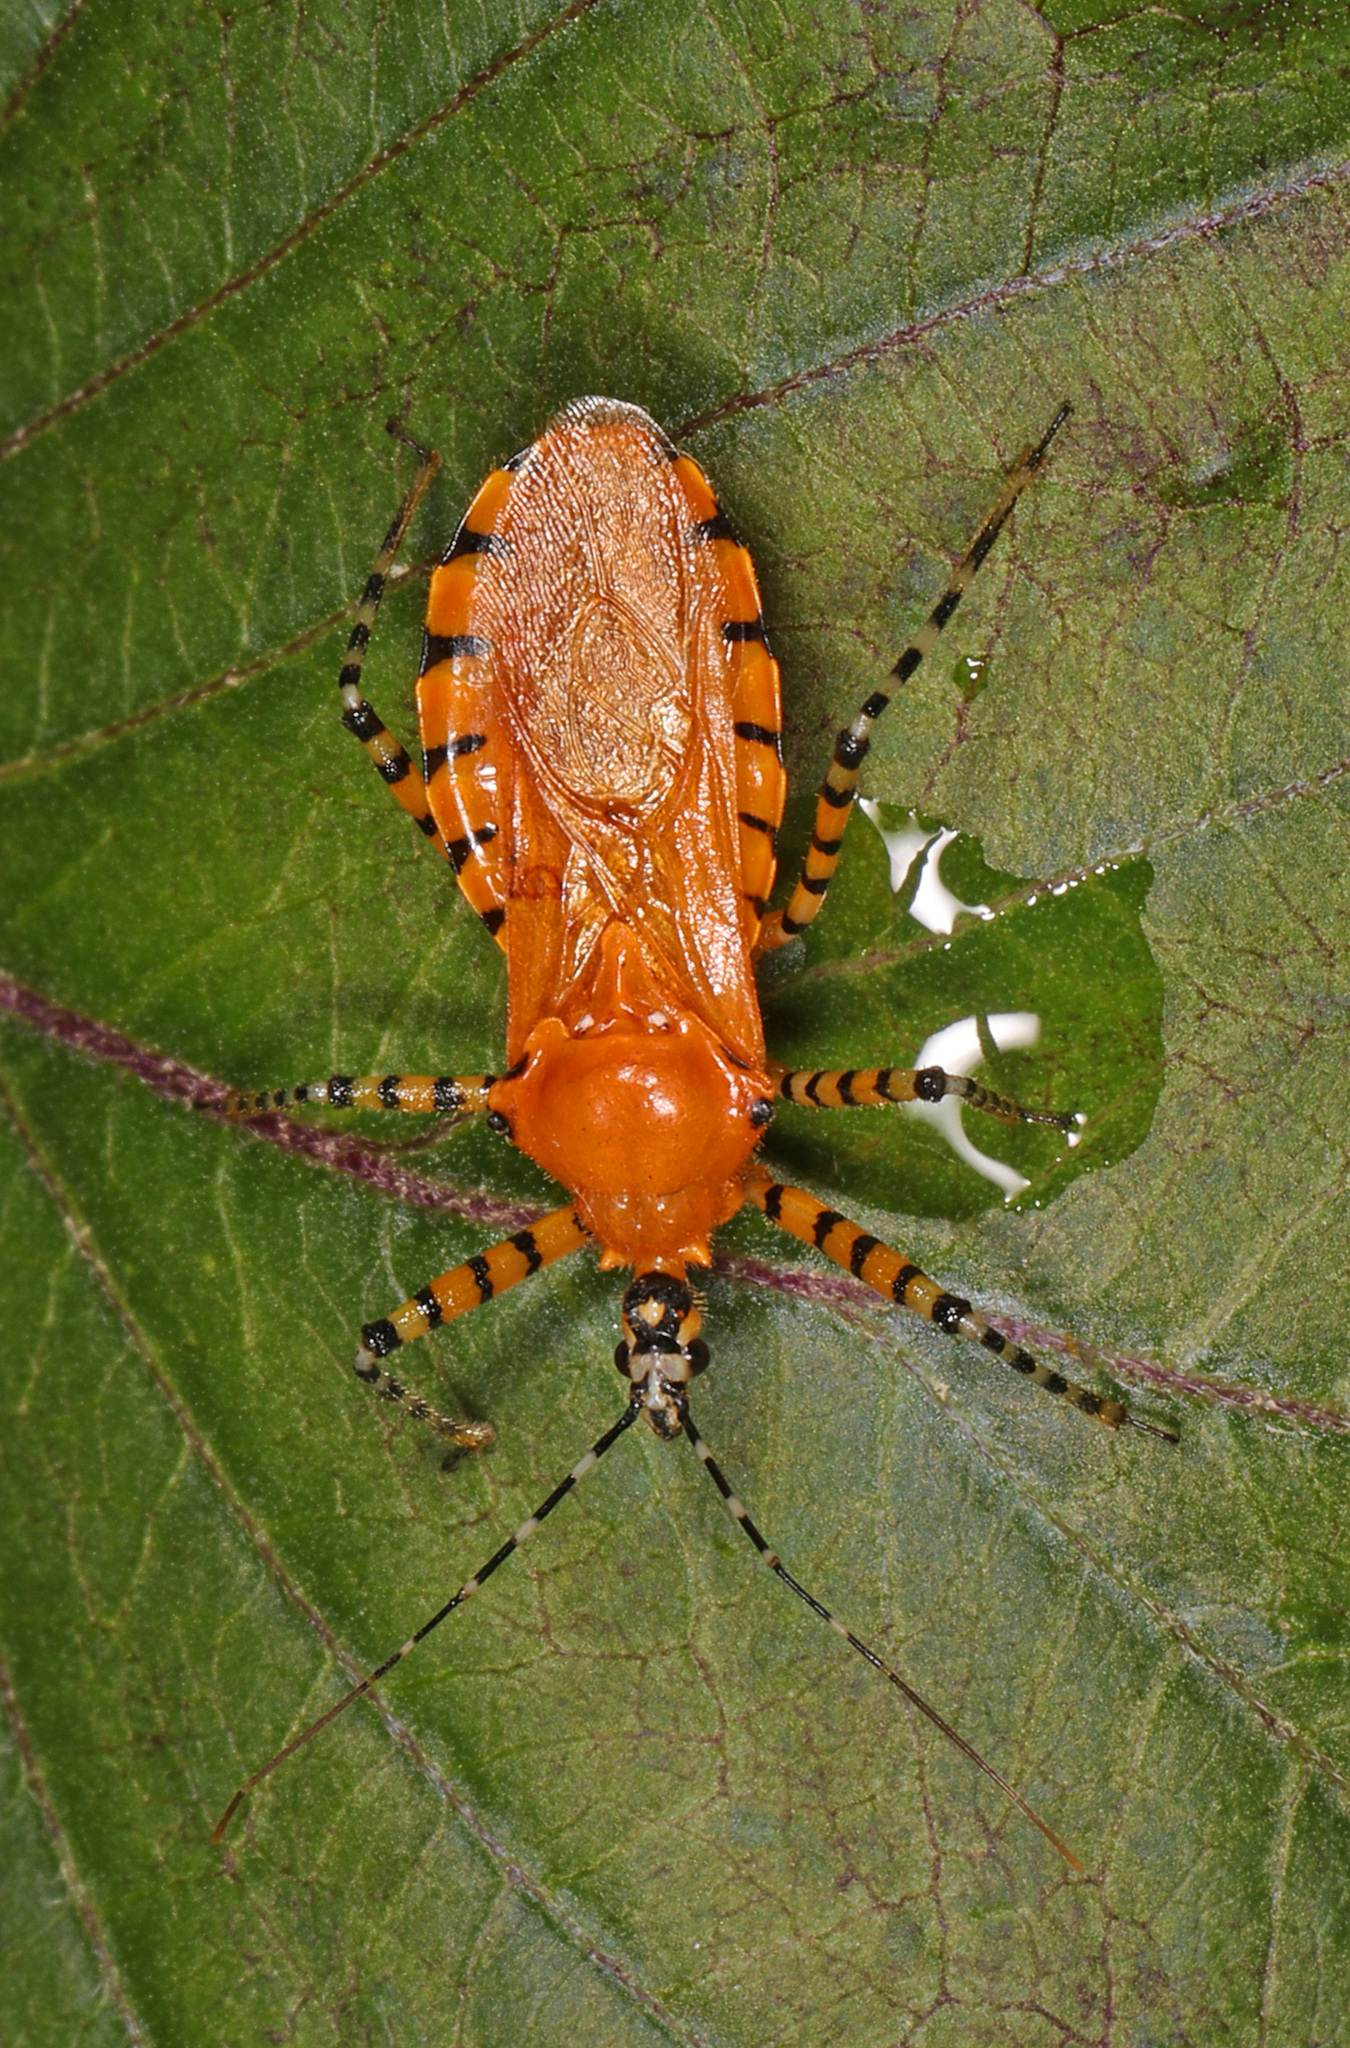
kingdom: Animalia
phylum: Arthropoda
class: Insecta
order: Hemiptera
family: Reduviidae
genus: Pselliopus
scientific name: Pselliopus barberi
